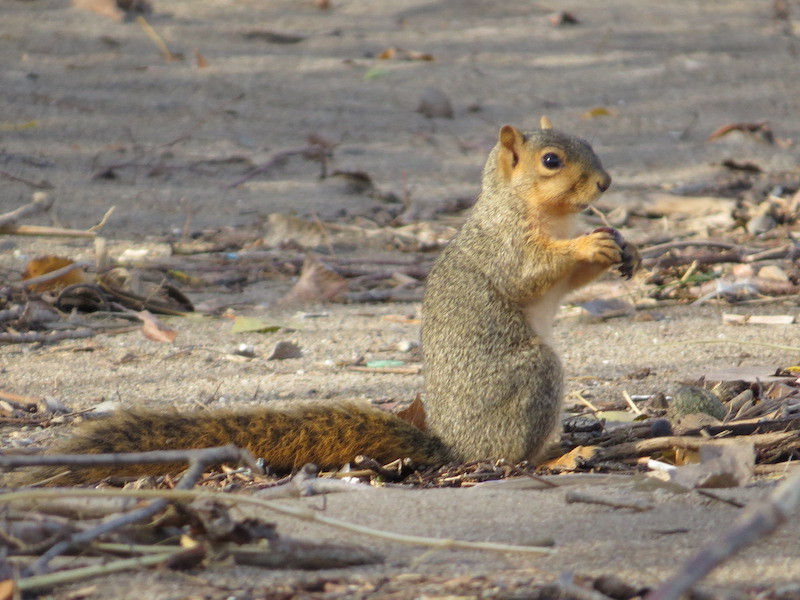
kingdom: Animalia
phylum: Chordata
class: Mammalia
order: Rodentia
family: Sciuridae
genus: Sciurus
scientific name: Sciurus niger
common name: Fox squirrel
